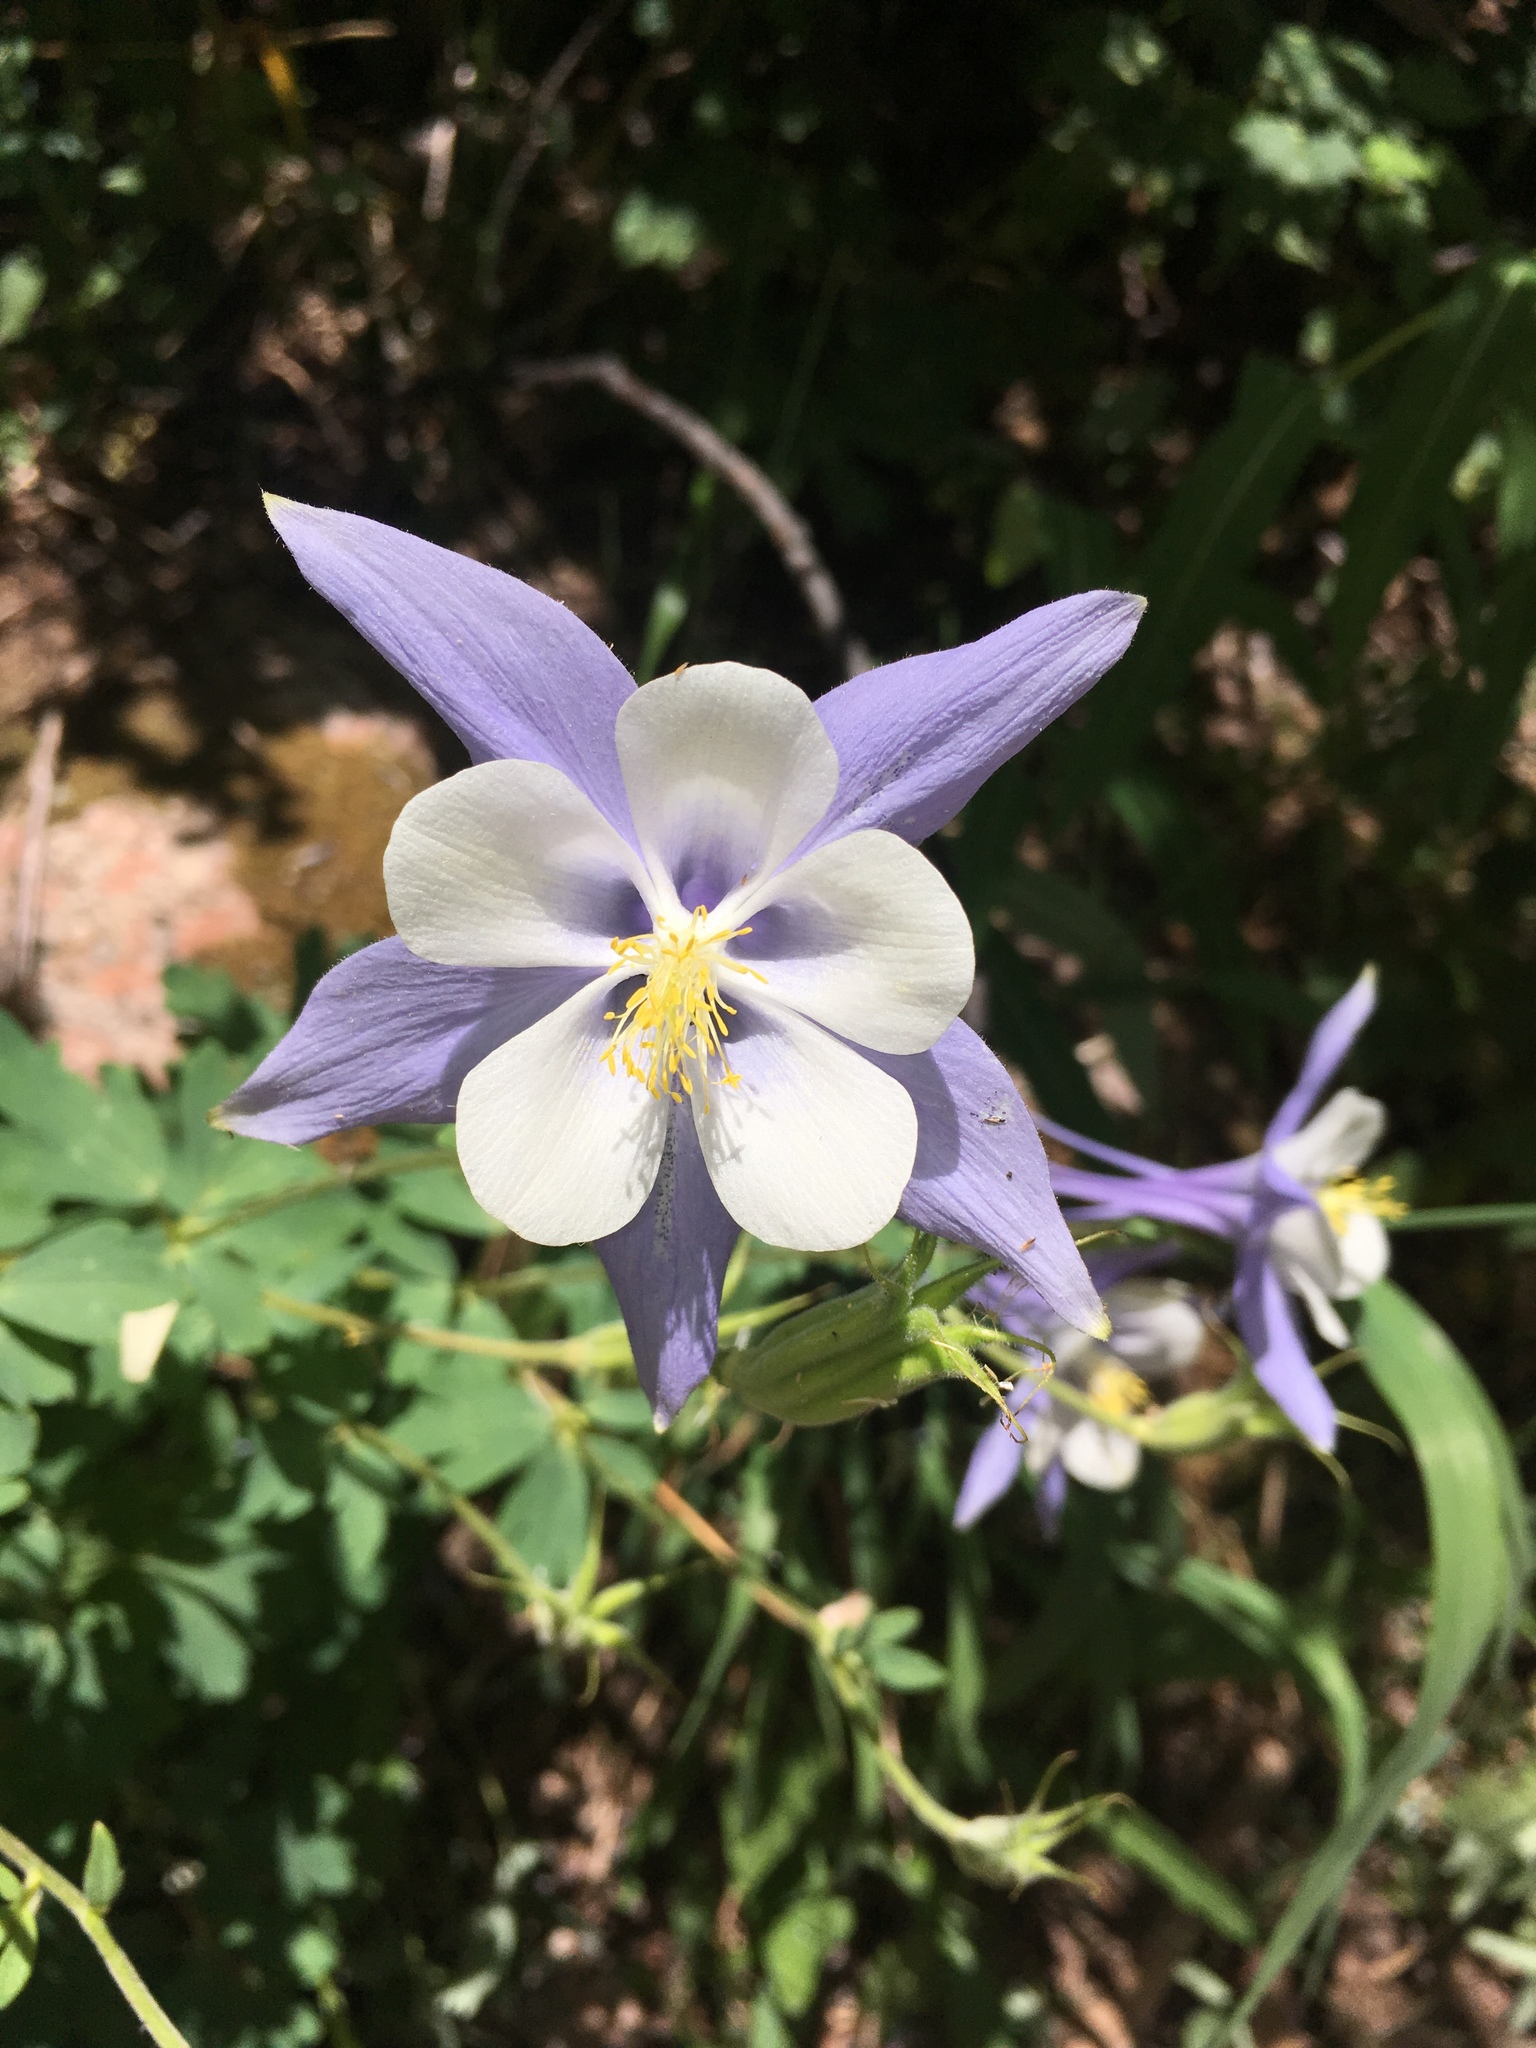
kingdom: Plantae
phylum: Tracheophyta
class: Magnoliopsida
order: Ranunculales
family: Ranunculaceae
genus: Aquilegia
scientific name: Aquilegia coerulea
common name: Rocky mountain columbine
